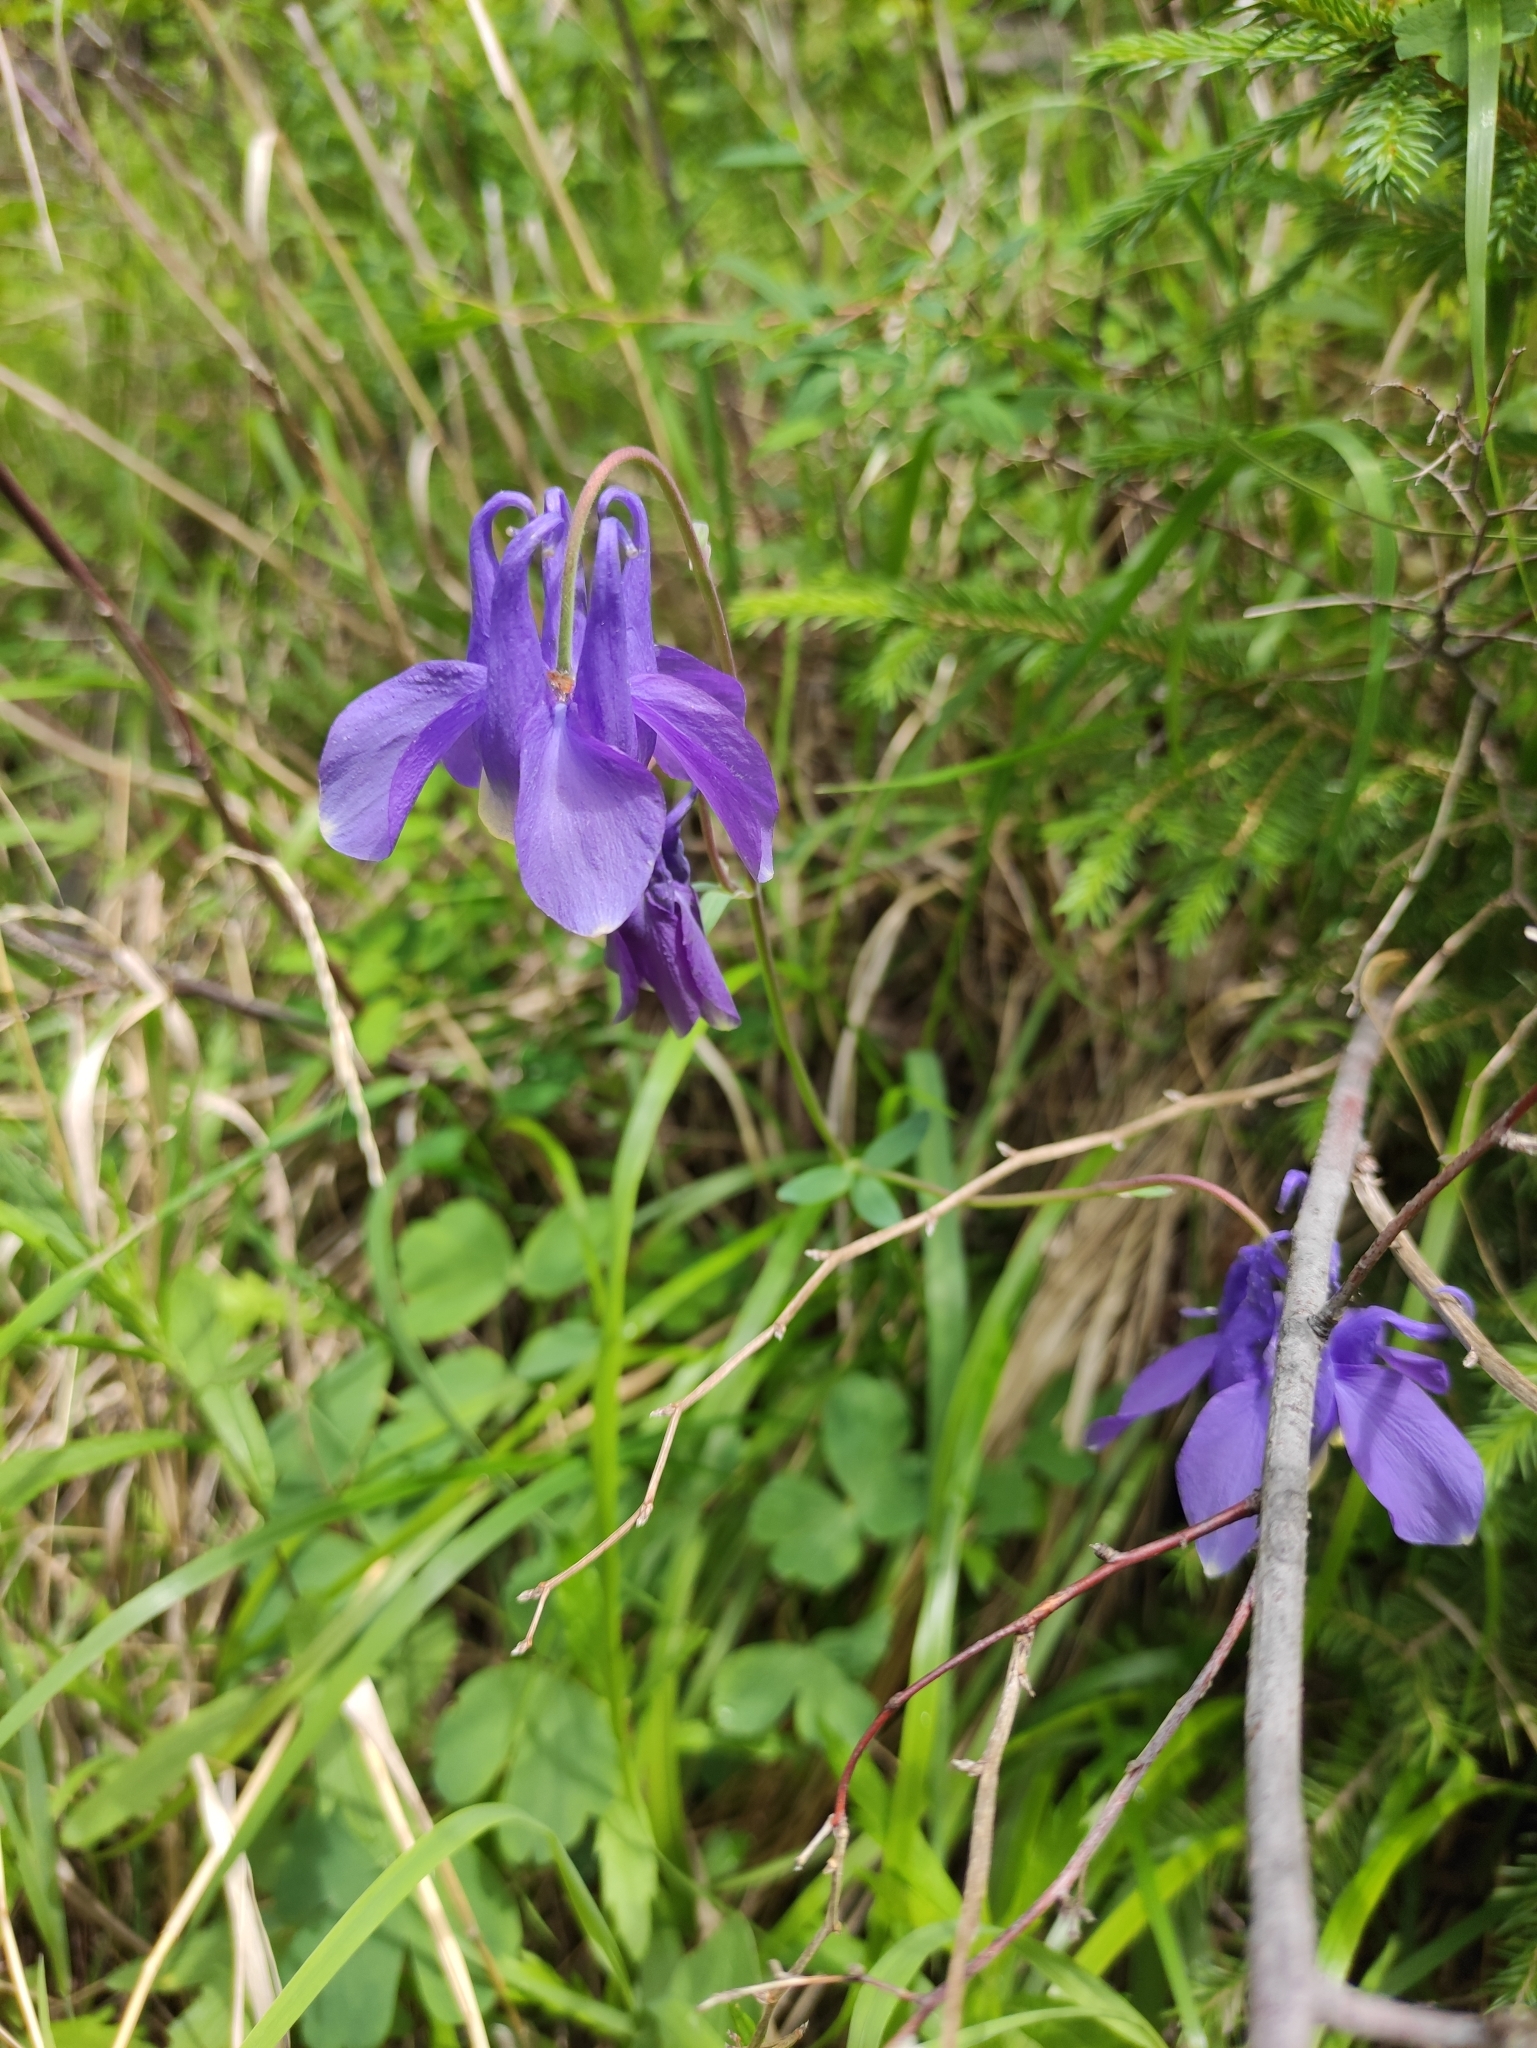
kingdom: Plantae
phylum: Tracheophyta
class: Magnoliopsida
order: Ranunculales
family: Ranunculaceae
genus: Aquilegia
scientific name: Aquilegia sibirica
